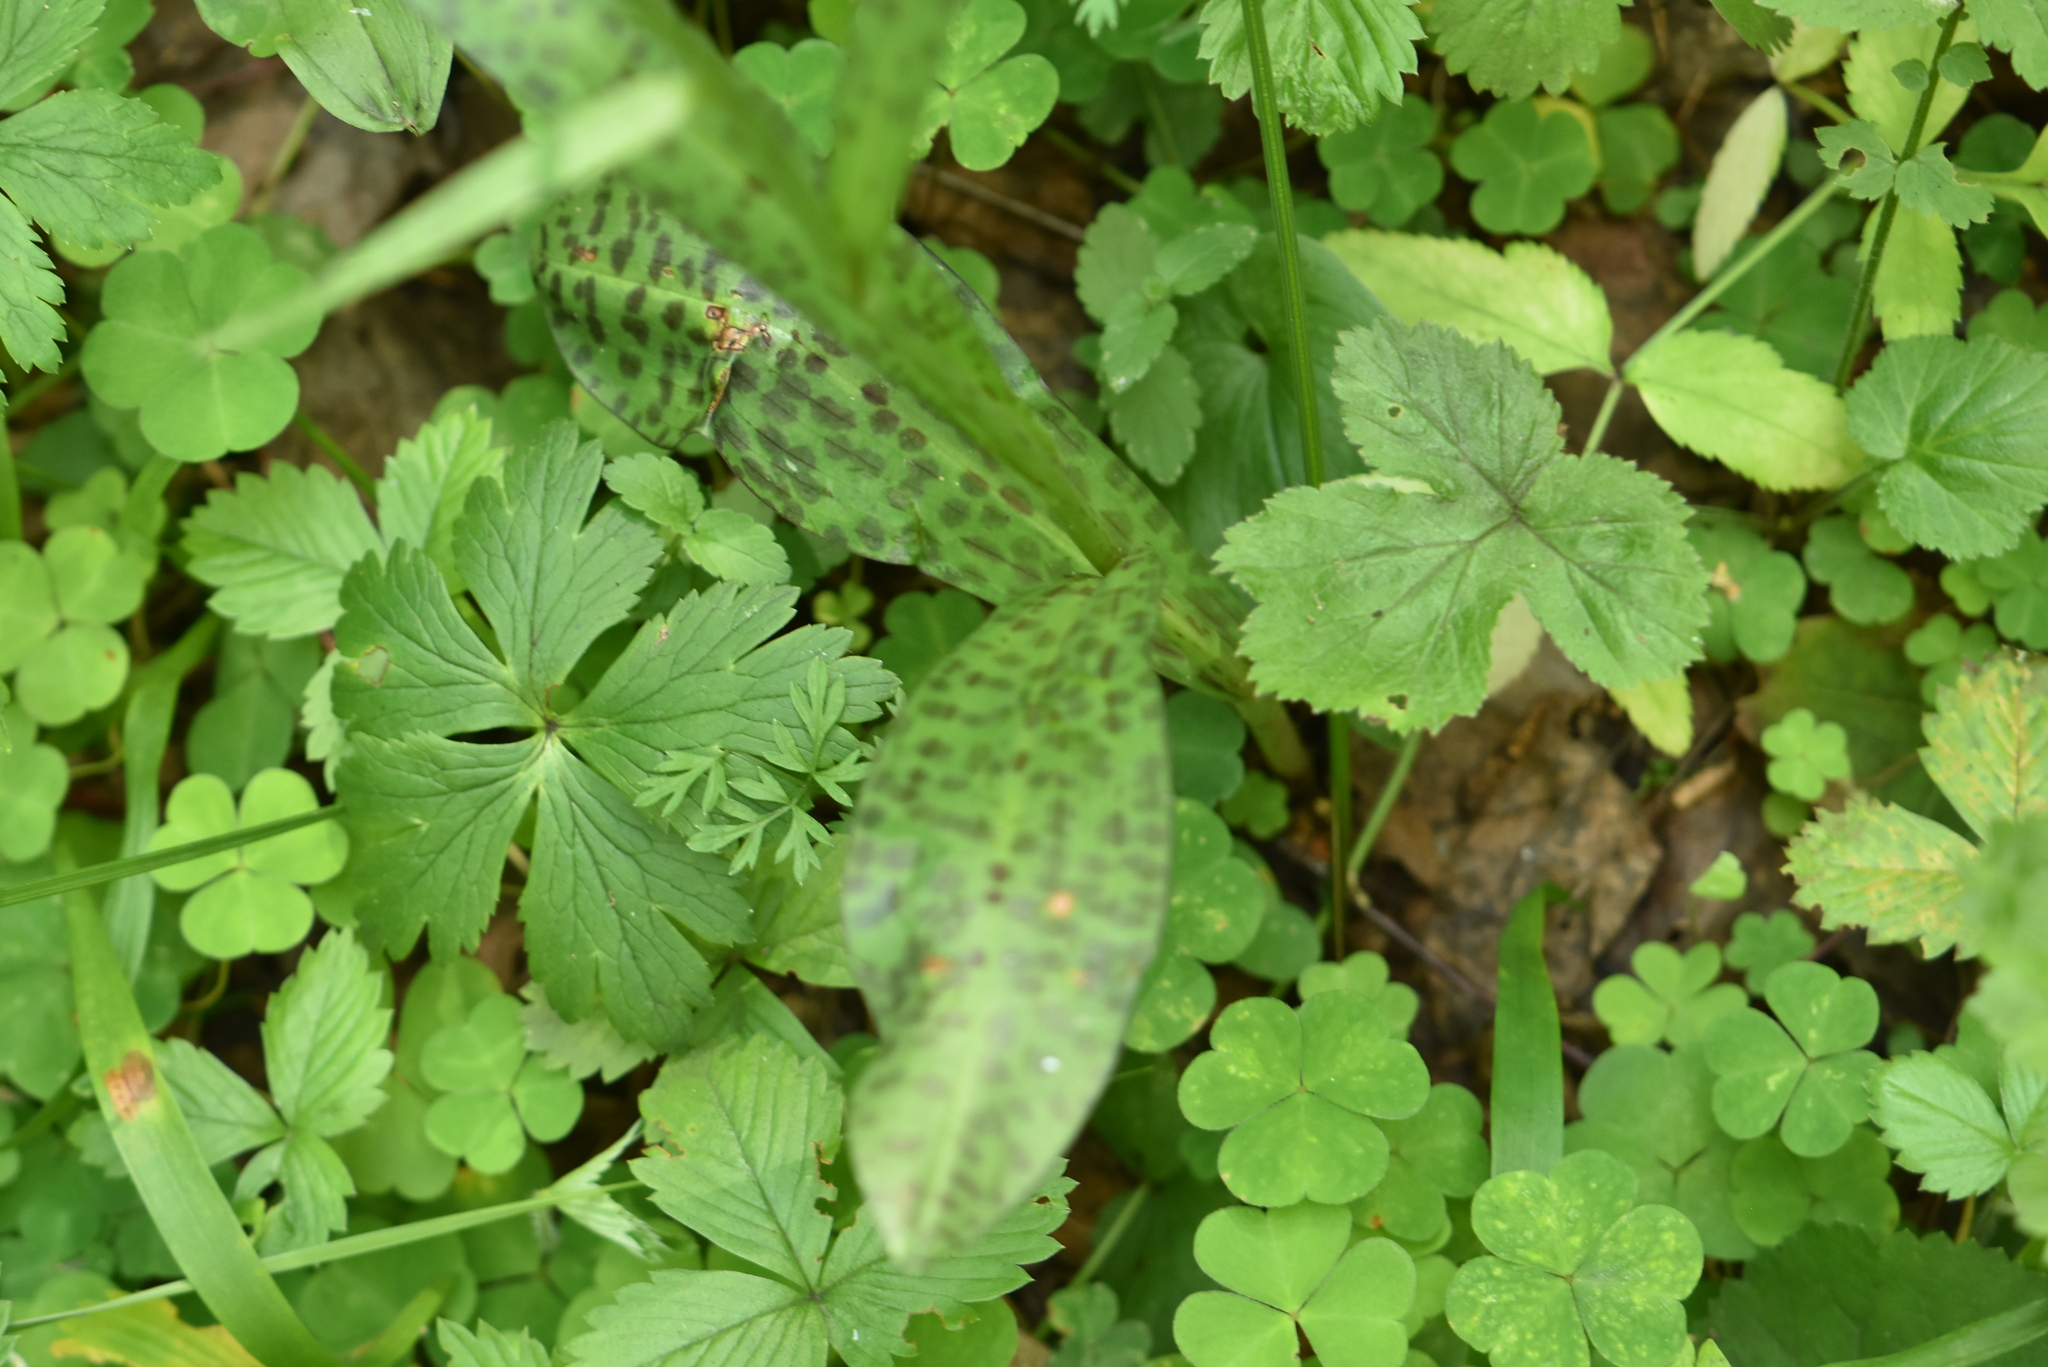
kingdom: Plantae
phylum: Tracheophyta
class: Liliopsida
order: Asparagales
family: Orchidaceae
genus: Dactylorhiza
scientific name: Dactylorhiza maculata
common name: Heath spotted-orchid
